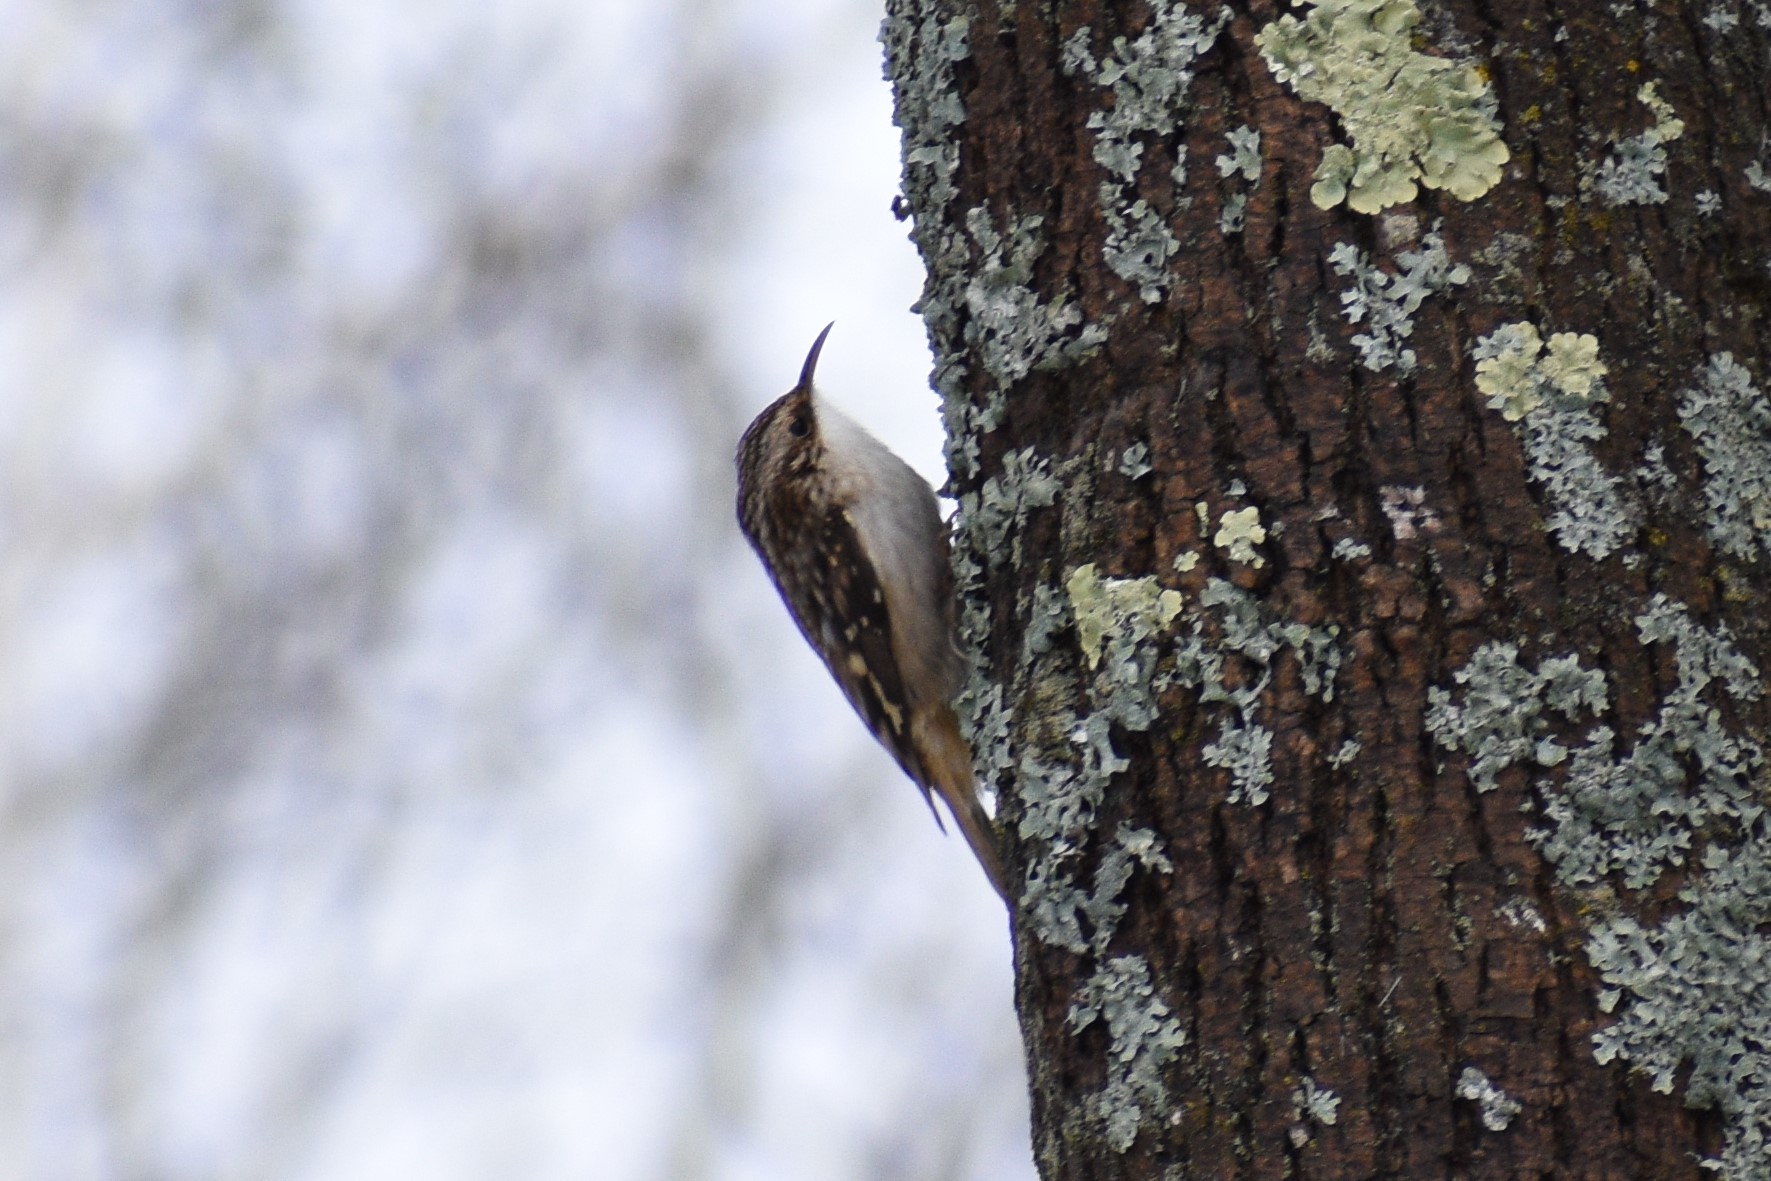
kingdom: Animalia
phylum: Chordata
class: Aves
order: Passeriformes
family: Certhiidae
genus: Certhia
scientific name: Certhia americana
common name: Brown creeper
